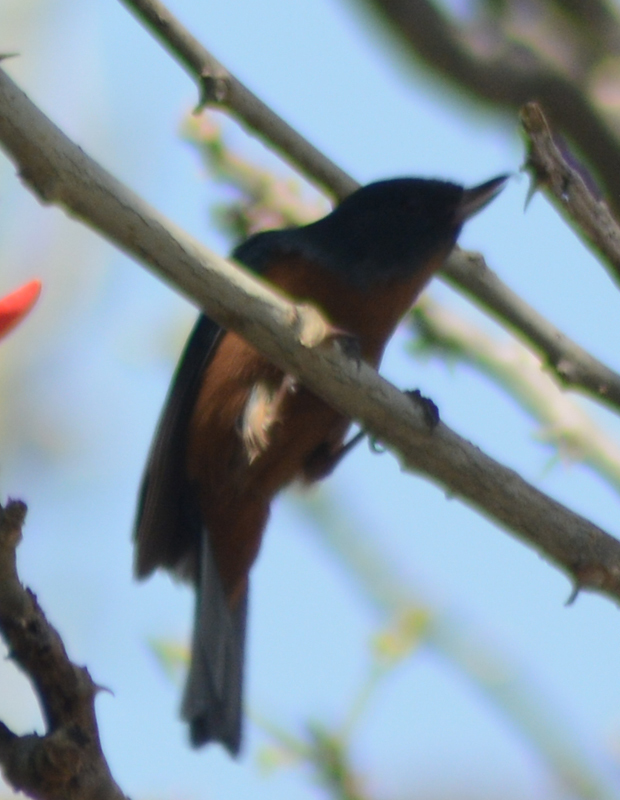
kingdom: Animalia
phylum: Chordata
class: Aves
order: Passeriformes
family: Thraupidae
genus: Diglossa
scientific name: Diglossa baritula
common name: Cinnamon-bellied flowerpiercer
